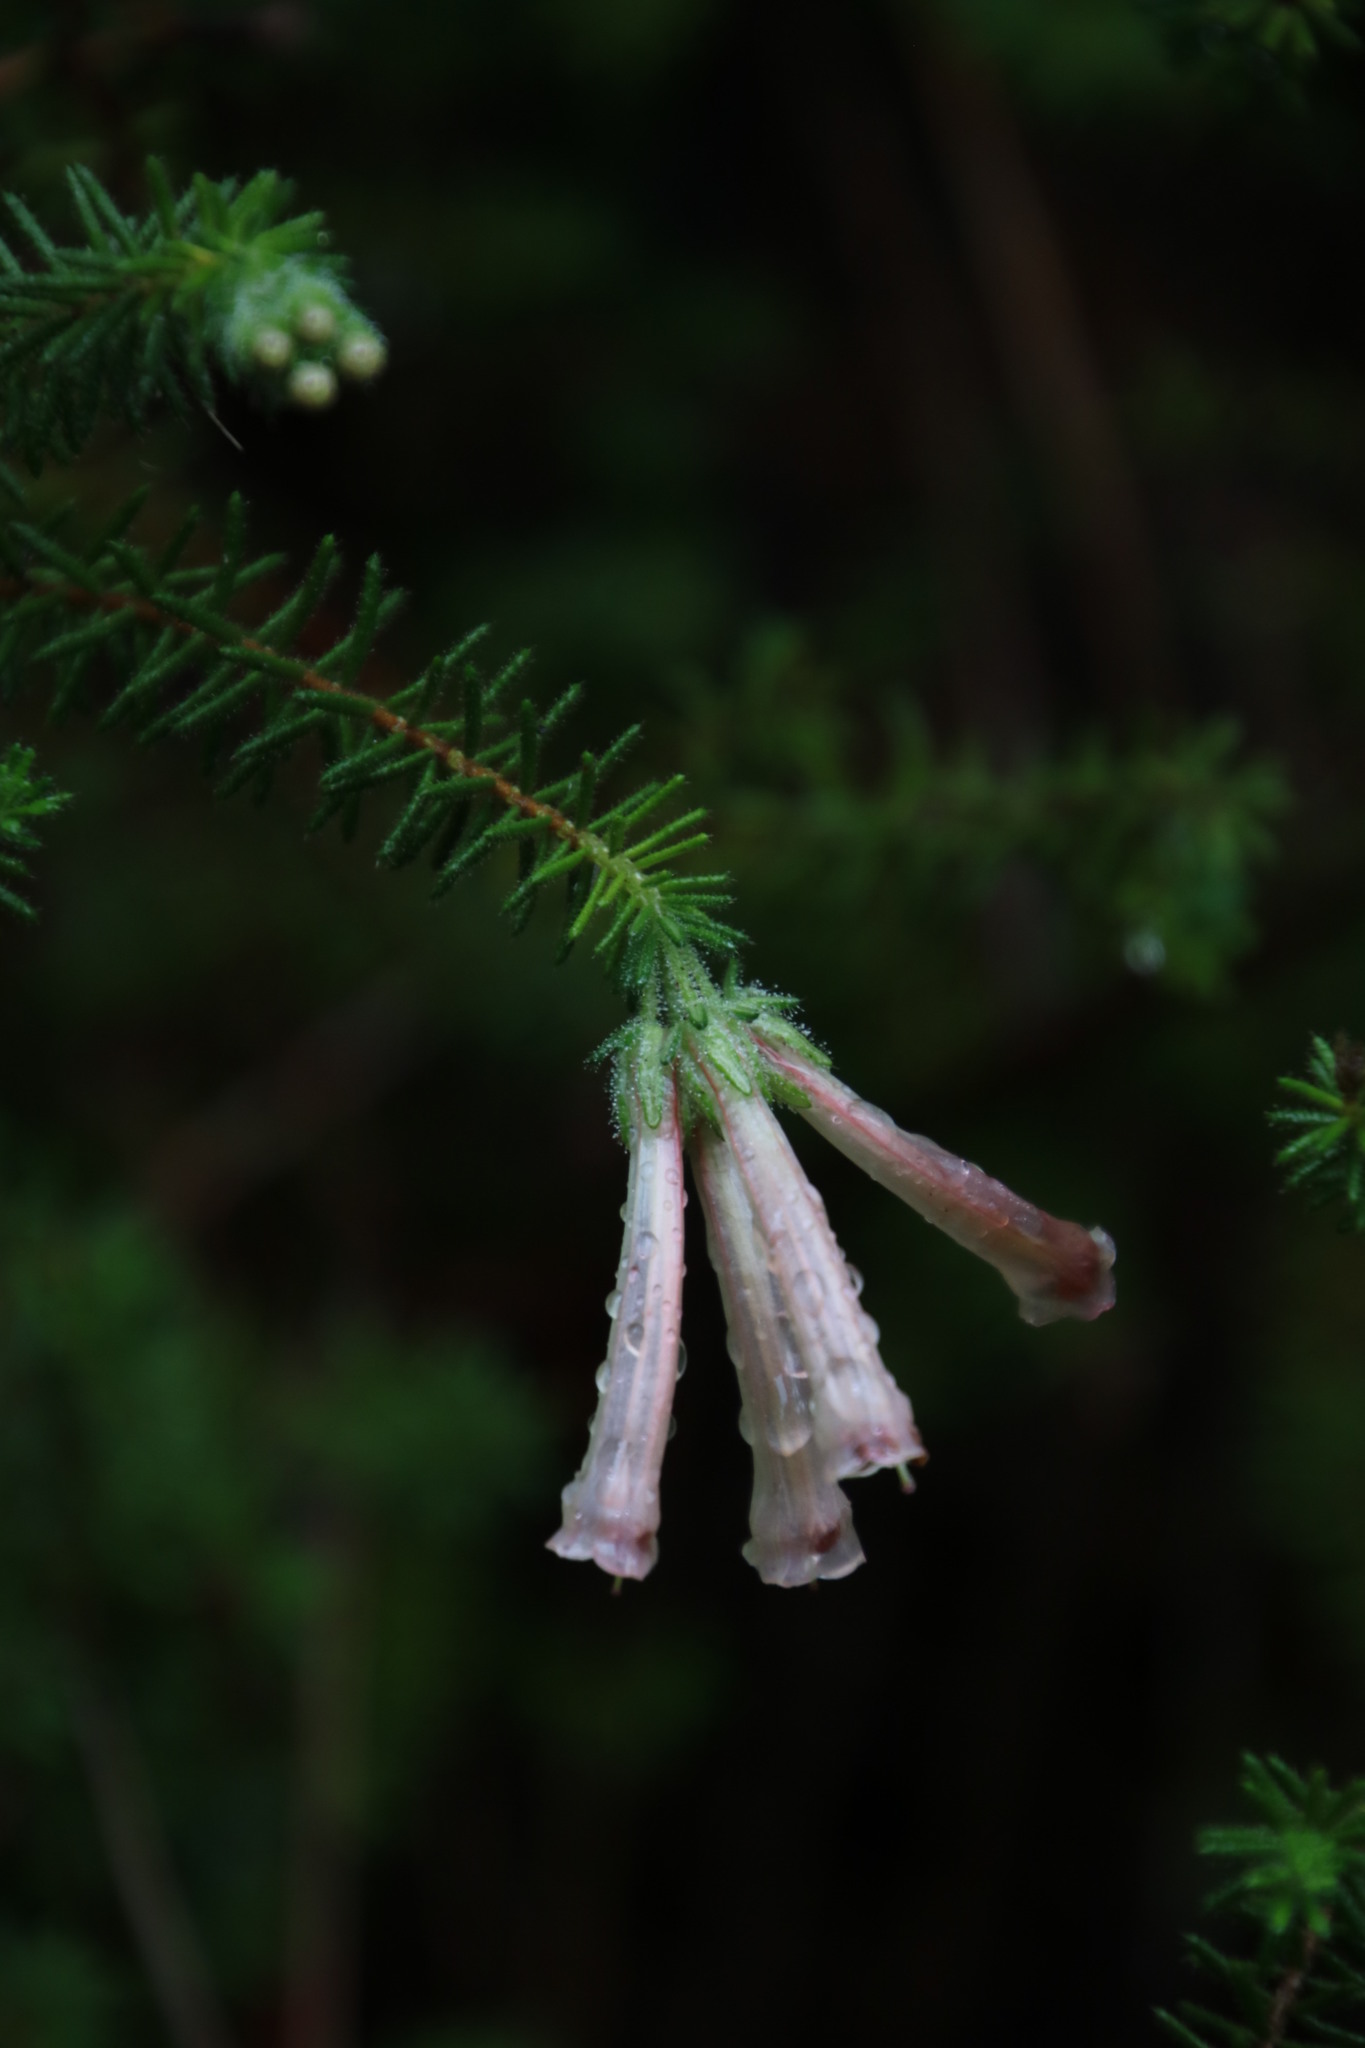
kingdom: Plantae
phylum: Tracheophyta
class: Magnoliopsida
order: Ericales
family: Ericaceae
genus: Erica
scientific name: Erica glandulosa
